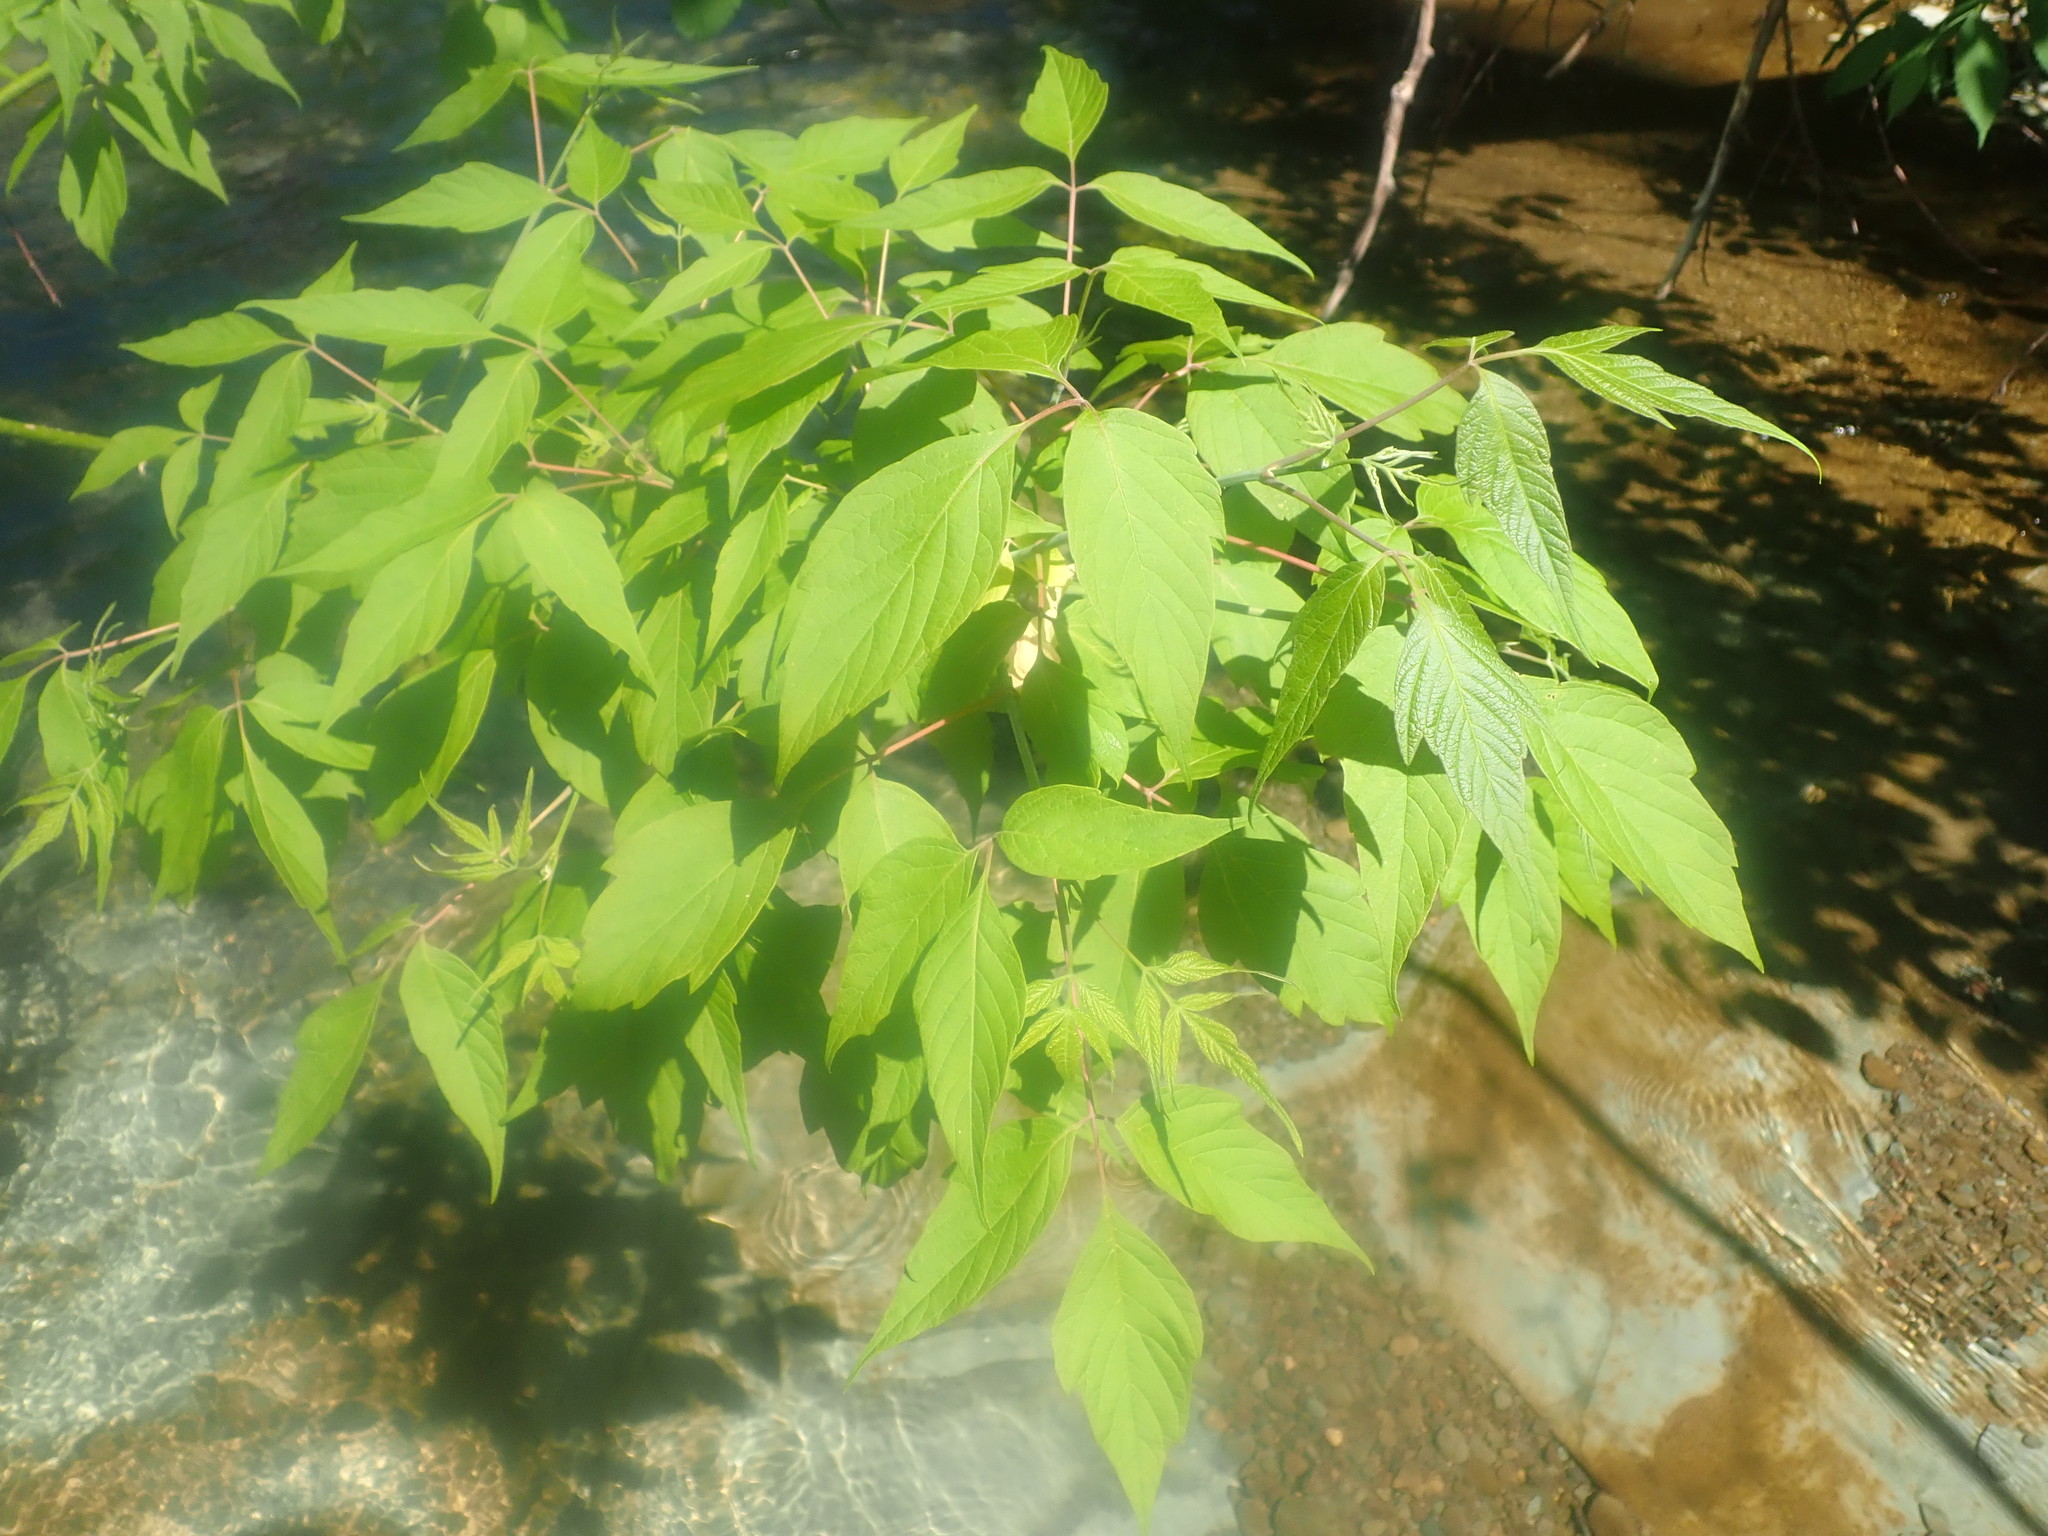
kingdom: Plantae
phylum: Tracheophyta
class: Magnoliopsida
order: Sapindales
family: Sapindaceae
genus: Acer
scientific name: Acer negundo
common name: Ashleaf maple
